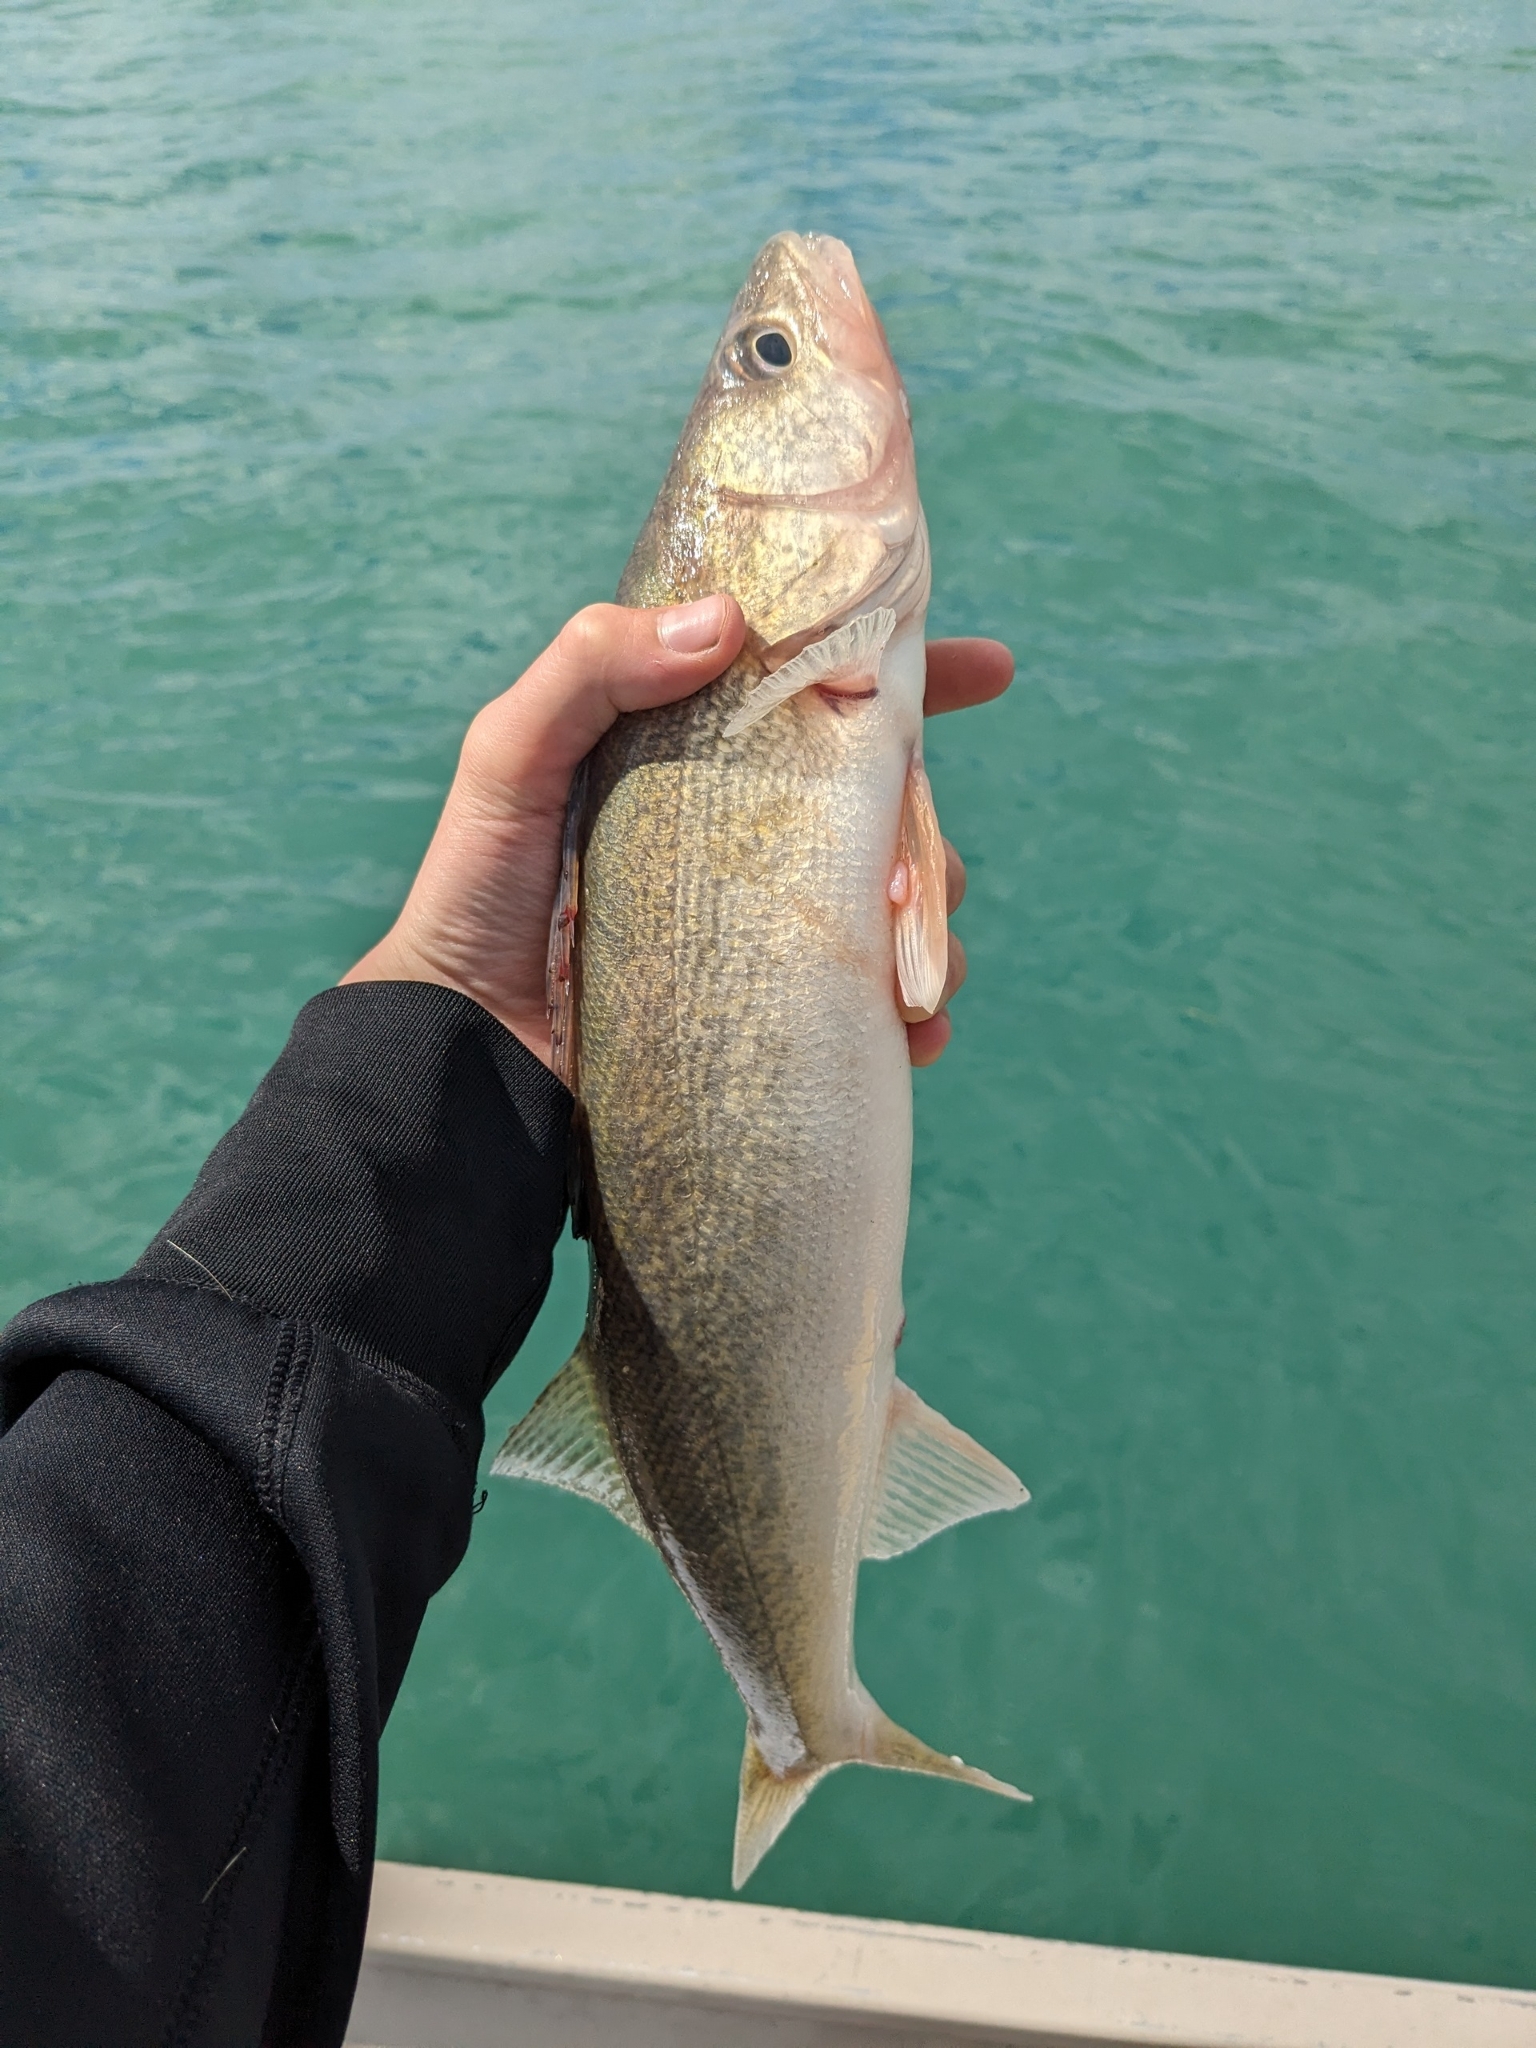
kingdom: Animalia
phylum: Chordata
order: Perciformes
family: Percidae
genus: Sander
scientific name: Sander vitreus
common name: Walleye
